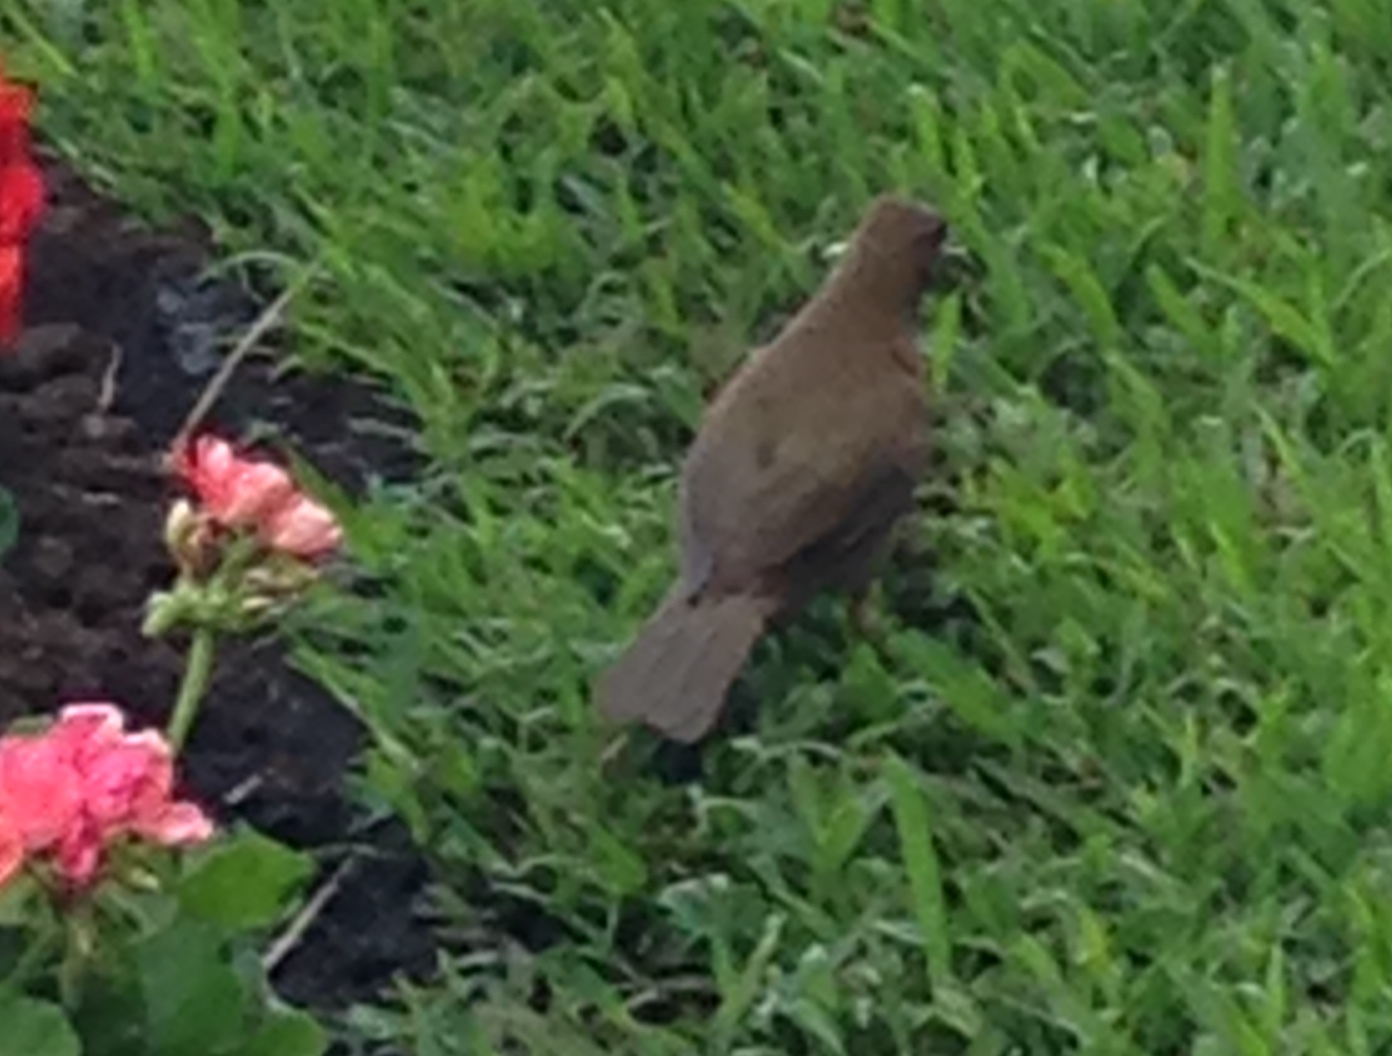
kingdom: Animalia
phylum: Chordata
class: Aves
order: Passeriformes
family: Turdidae
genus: Turdus
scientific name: Turdus grayi
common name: Clay-colored thrush
